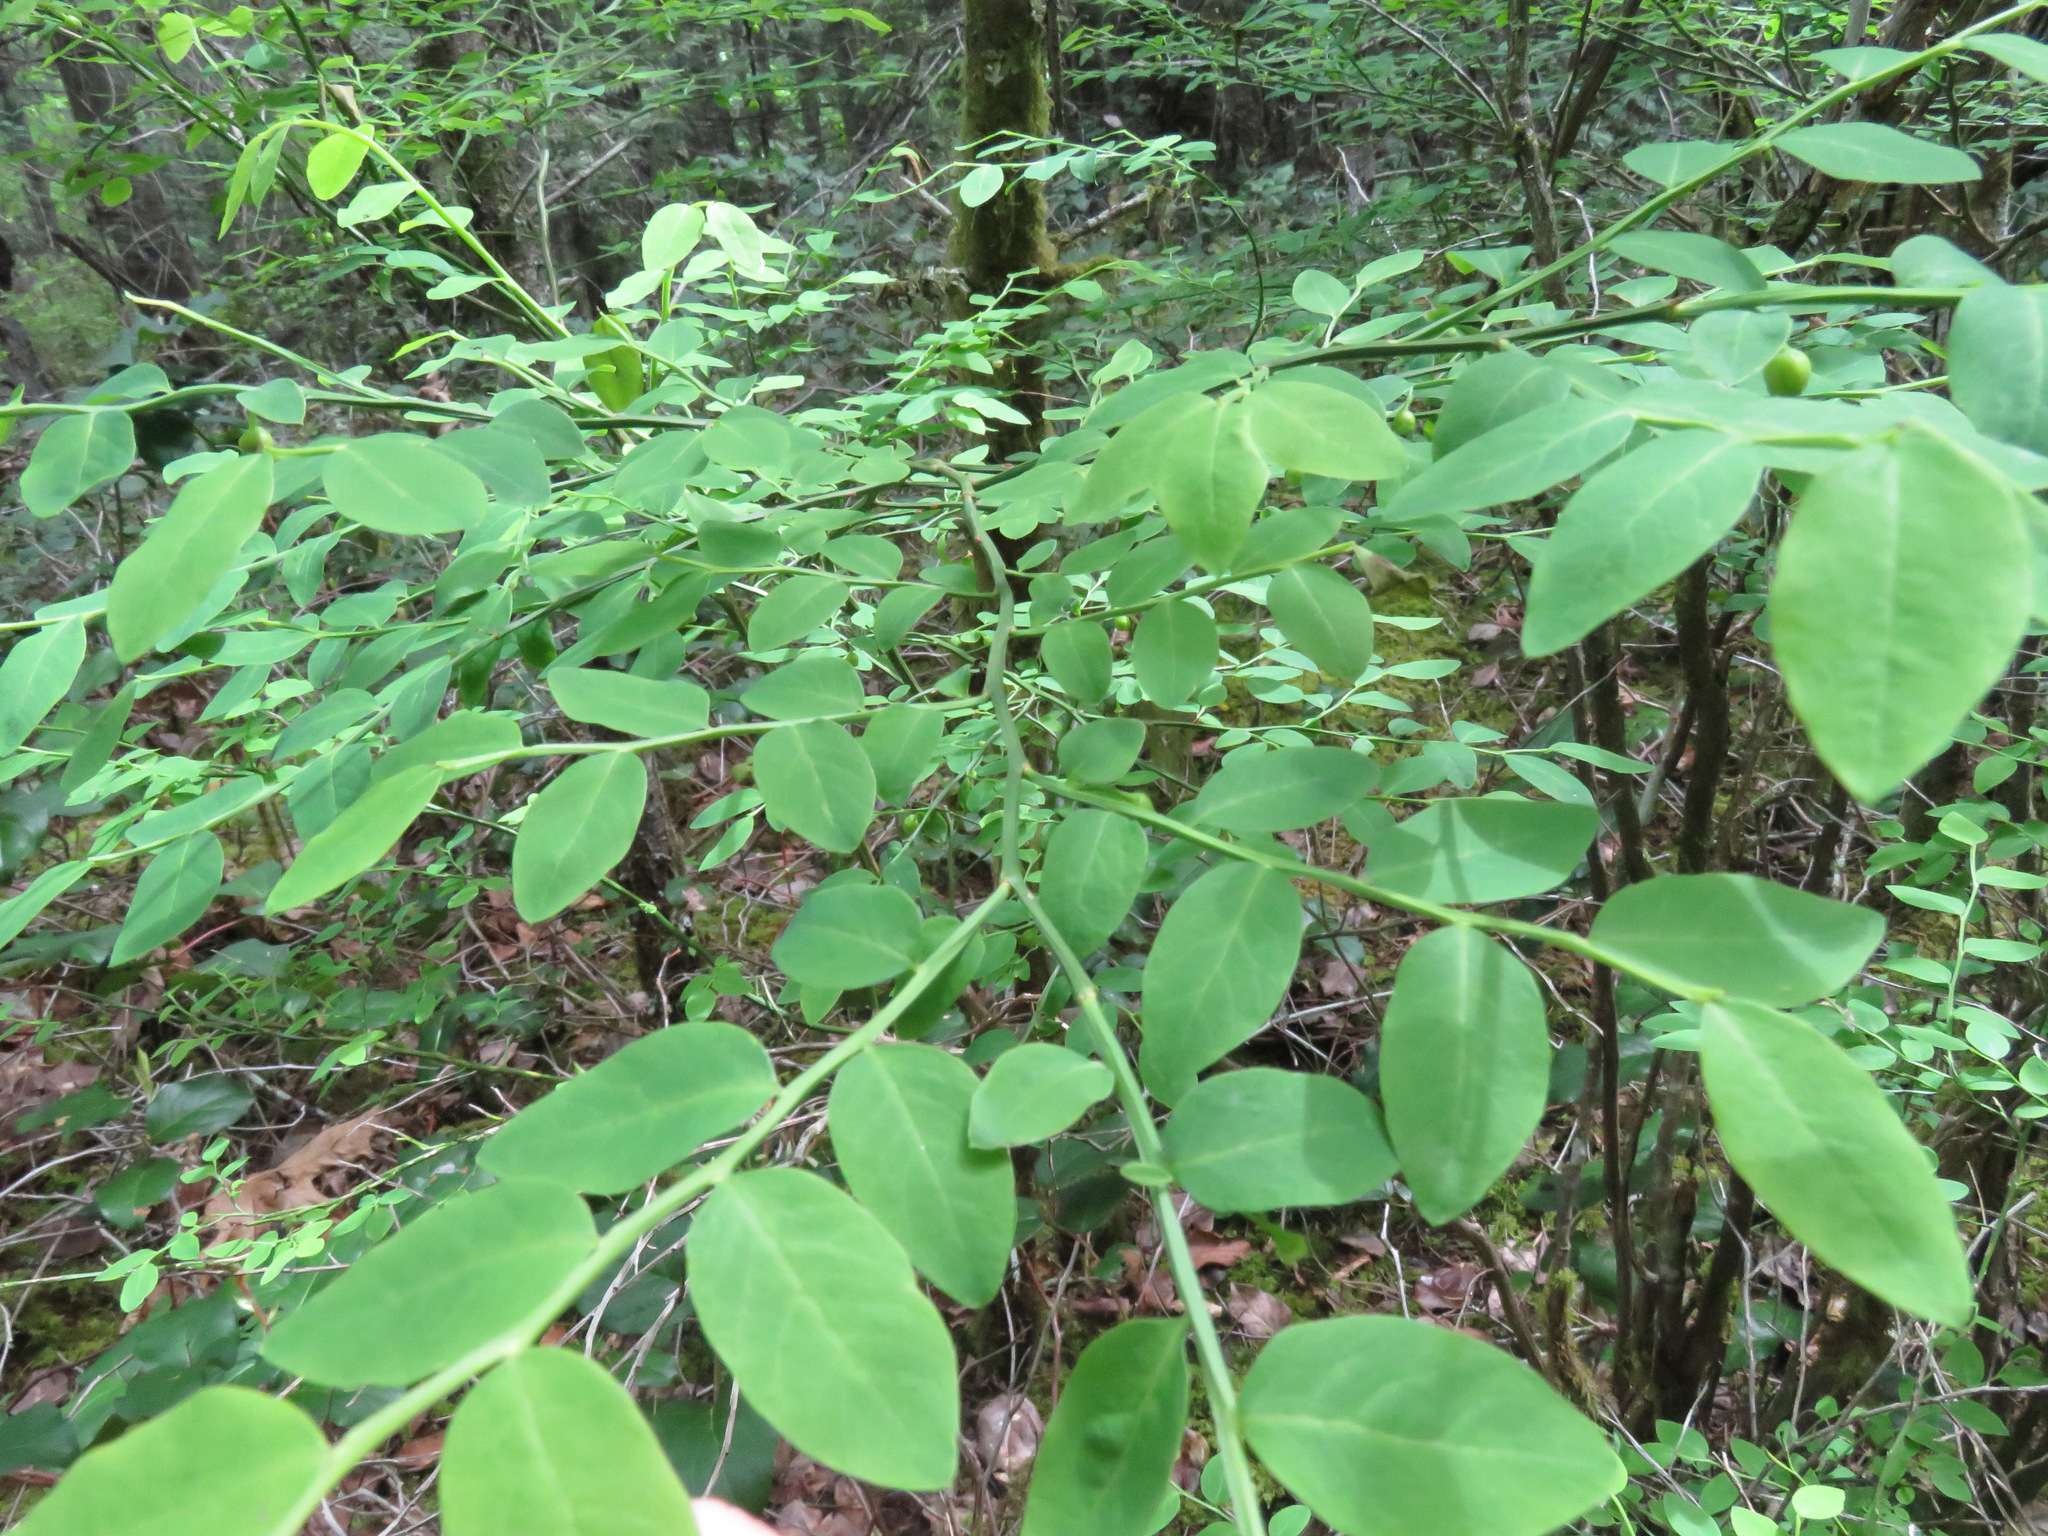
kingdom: Plantae
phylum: Tracheophyta
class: Magnoliopsida
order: Ericales
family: Ericaceae
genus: Vaccinium
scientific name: Vaccinium parvifolium
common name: Red-huckleberry
